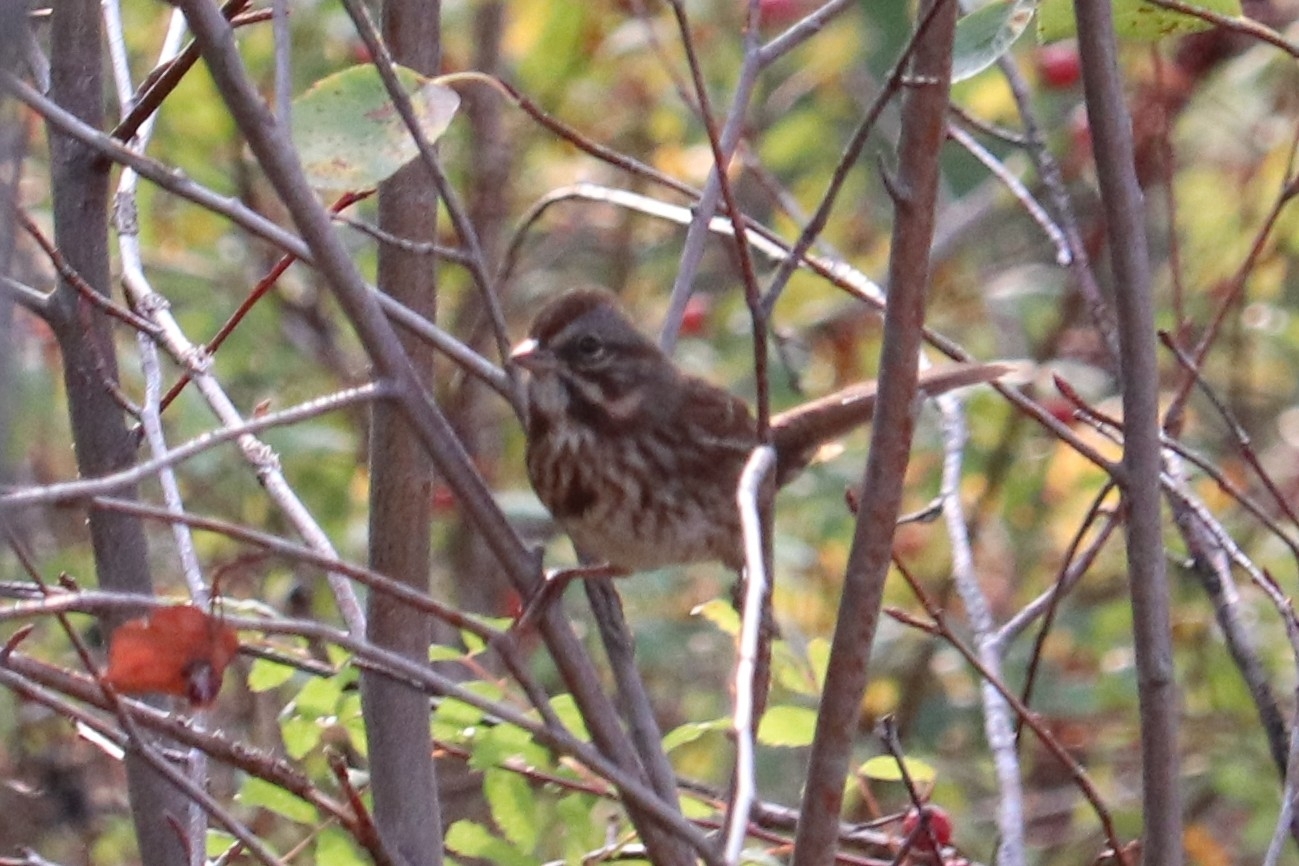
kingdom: Animalia
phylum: Chordata
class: Aves
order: Passeriformes
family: Passerellidae
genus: Melospiza
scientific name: Melospiza melodia
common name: Song sparrow
